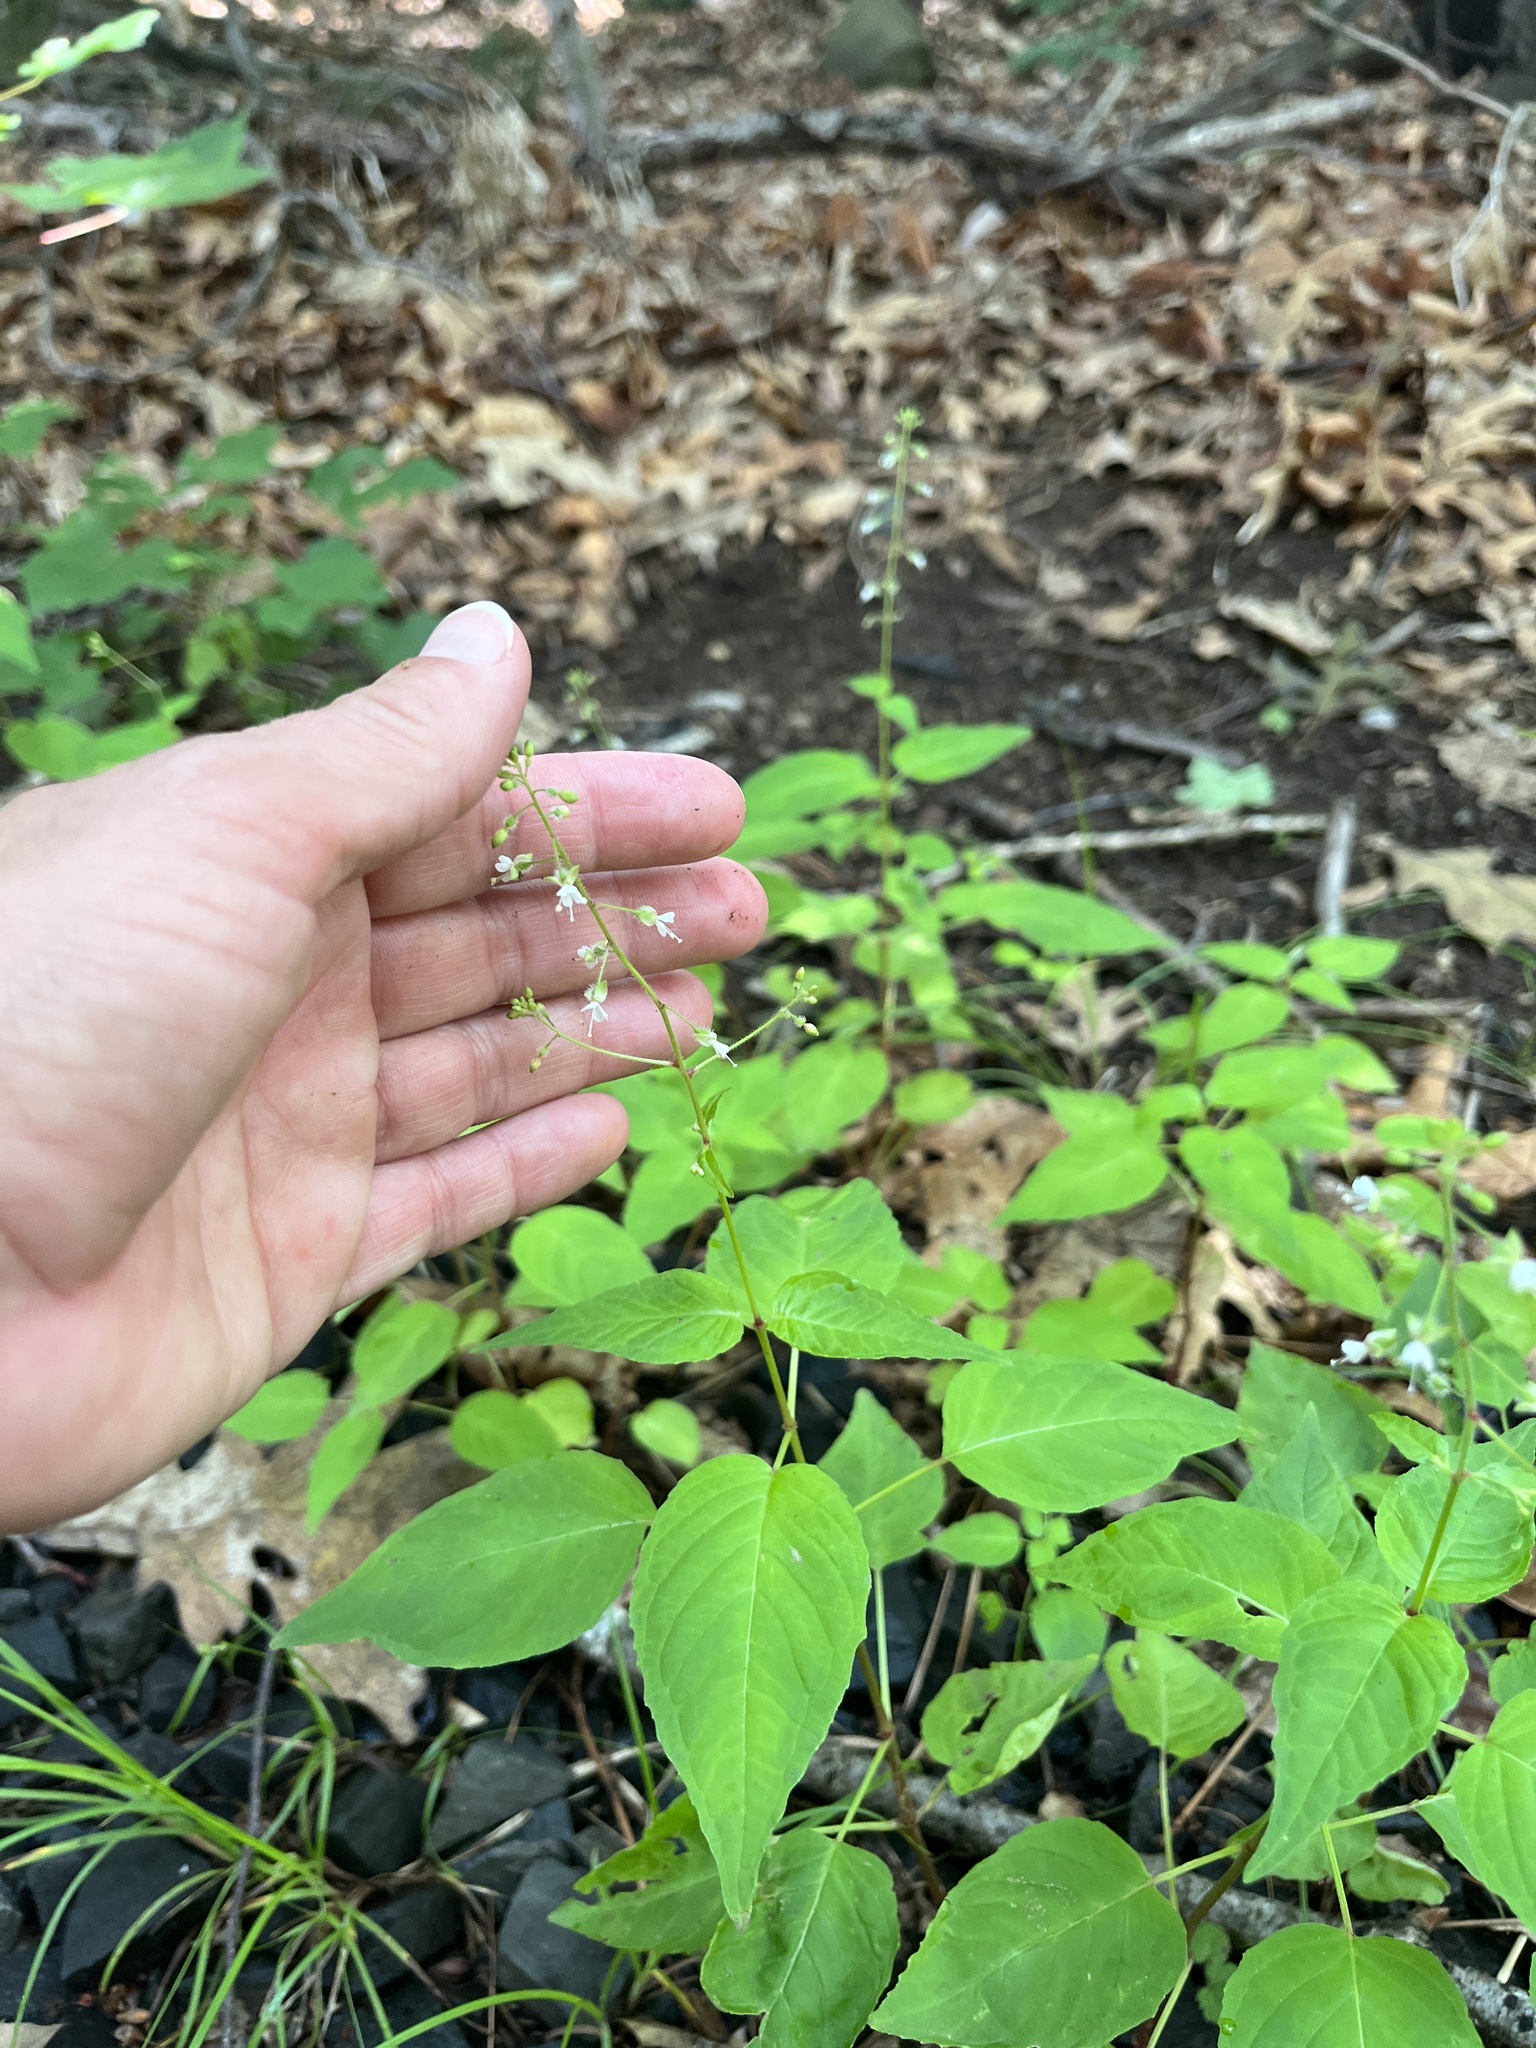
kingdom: Plantae
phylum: Tracheophyta
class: Magnoliopsida
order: Myrtales
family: Onagraceae
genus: Circaea
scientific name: Circaea canadensis
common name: Broad-leaved enchanter's nightshade
